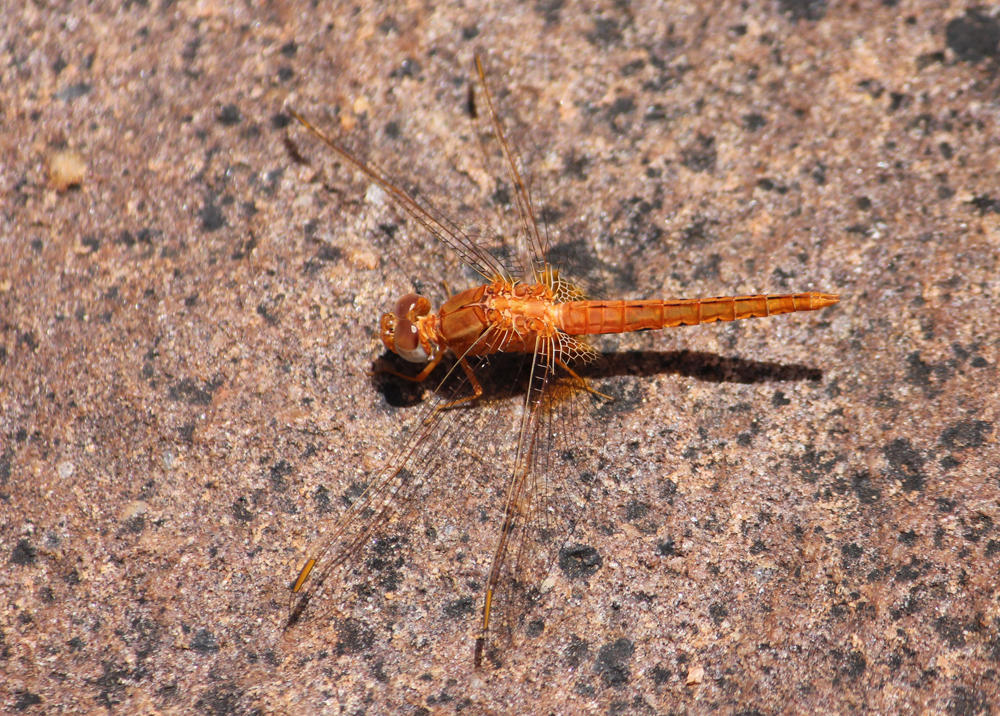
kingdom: Animalia
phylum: Arthropoda
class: Insecta
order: Odonata
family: Libellulidae
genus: Crocothemis
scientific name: Crocothemis sanguinolenta
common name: Little scarlet
